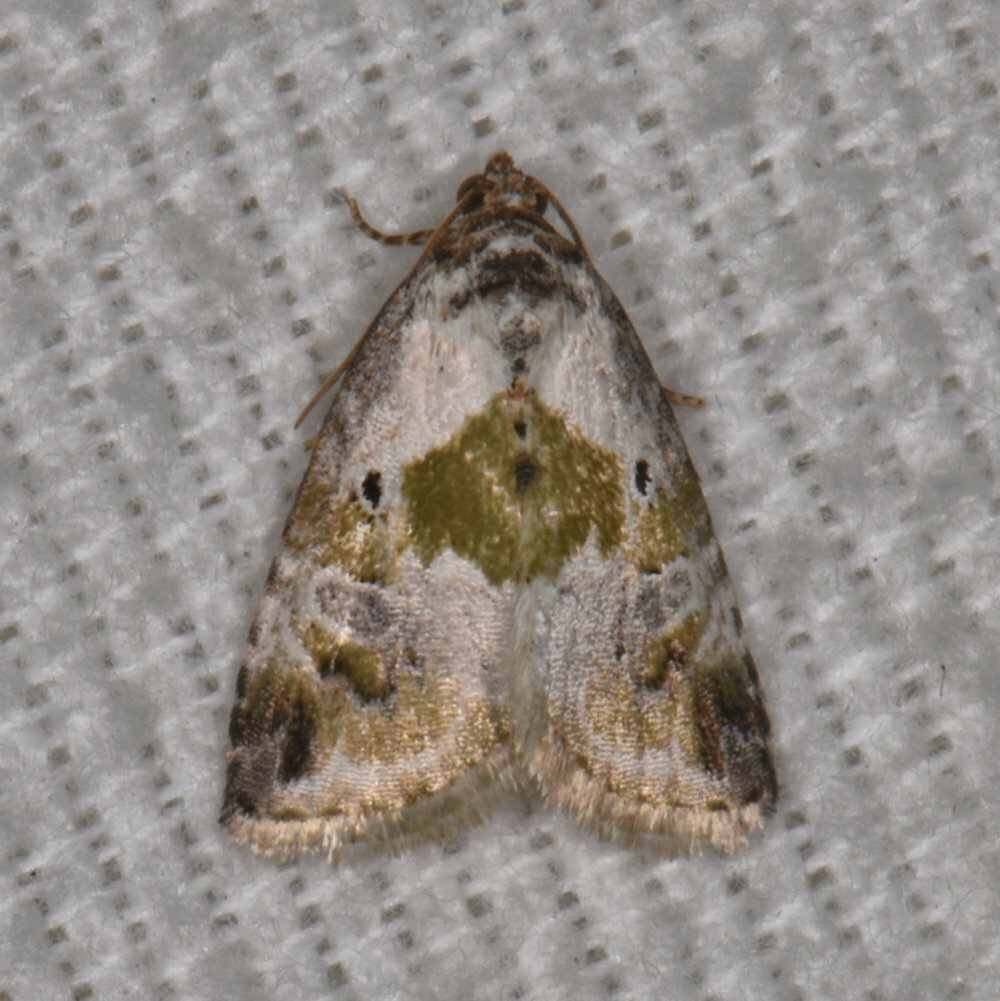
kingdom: Animalia
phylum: Arthropoda
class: Insecta
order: Lepidoptera
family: Noctuidae
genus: Maliattha
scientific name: Maliattha synochitis
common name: Black-dotted glyph
